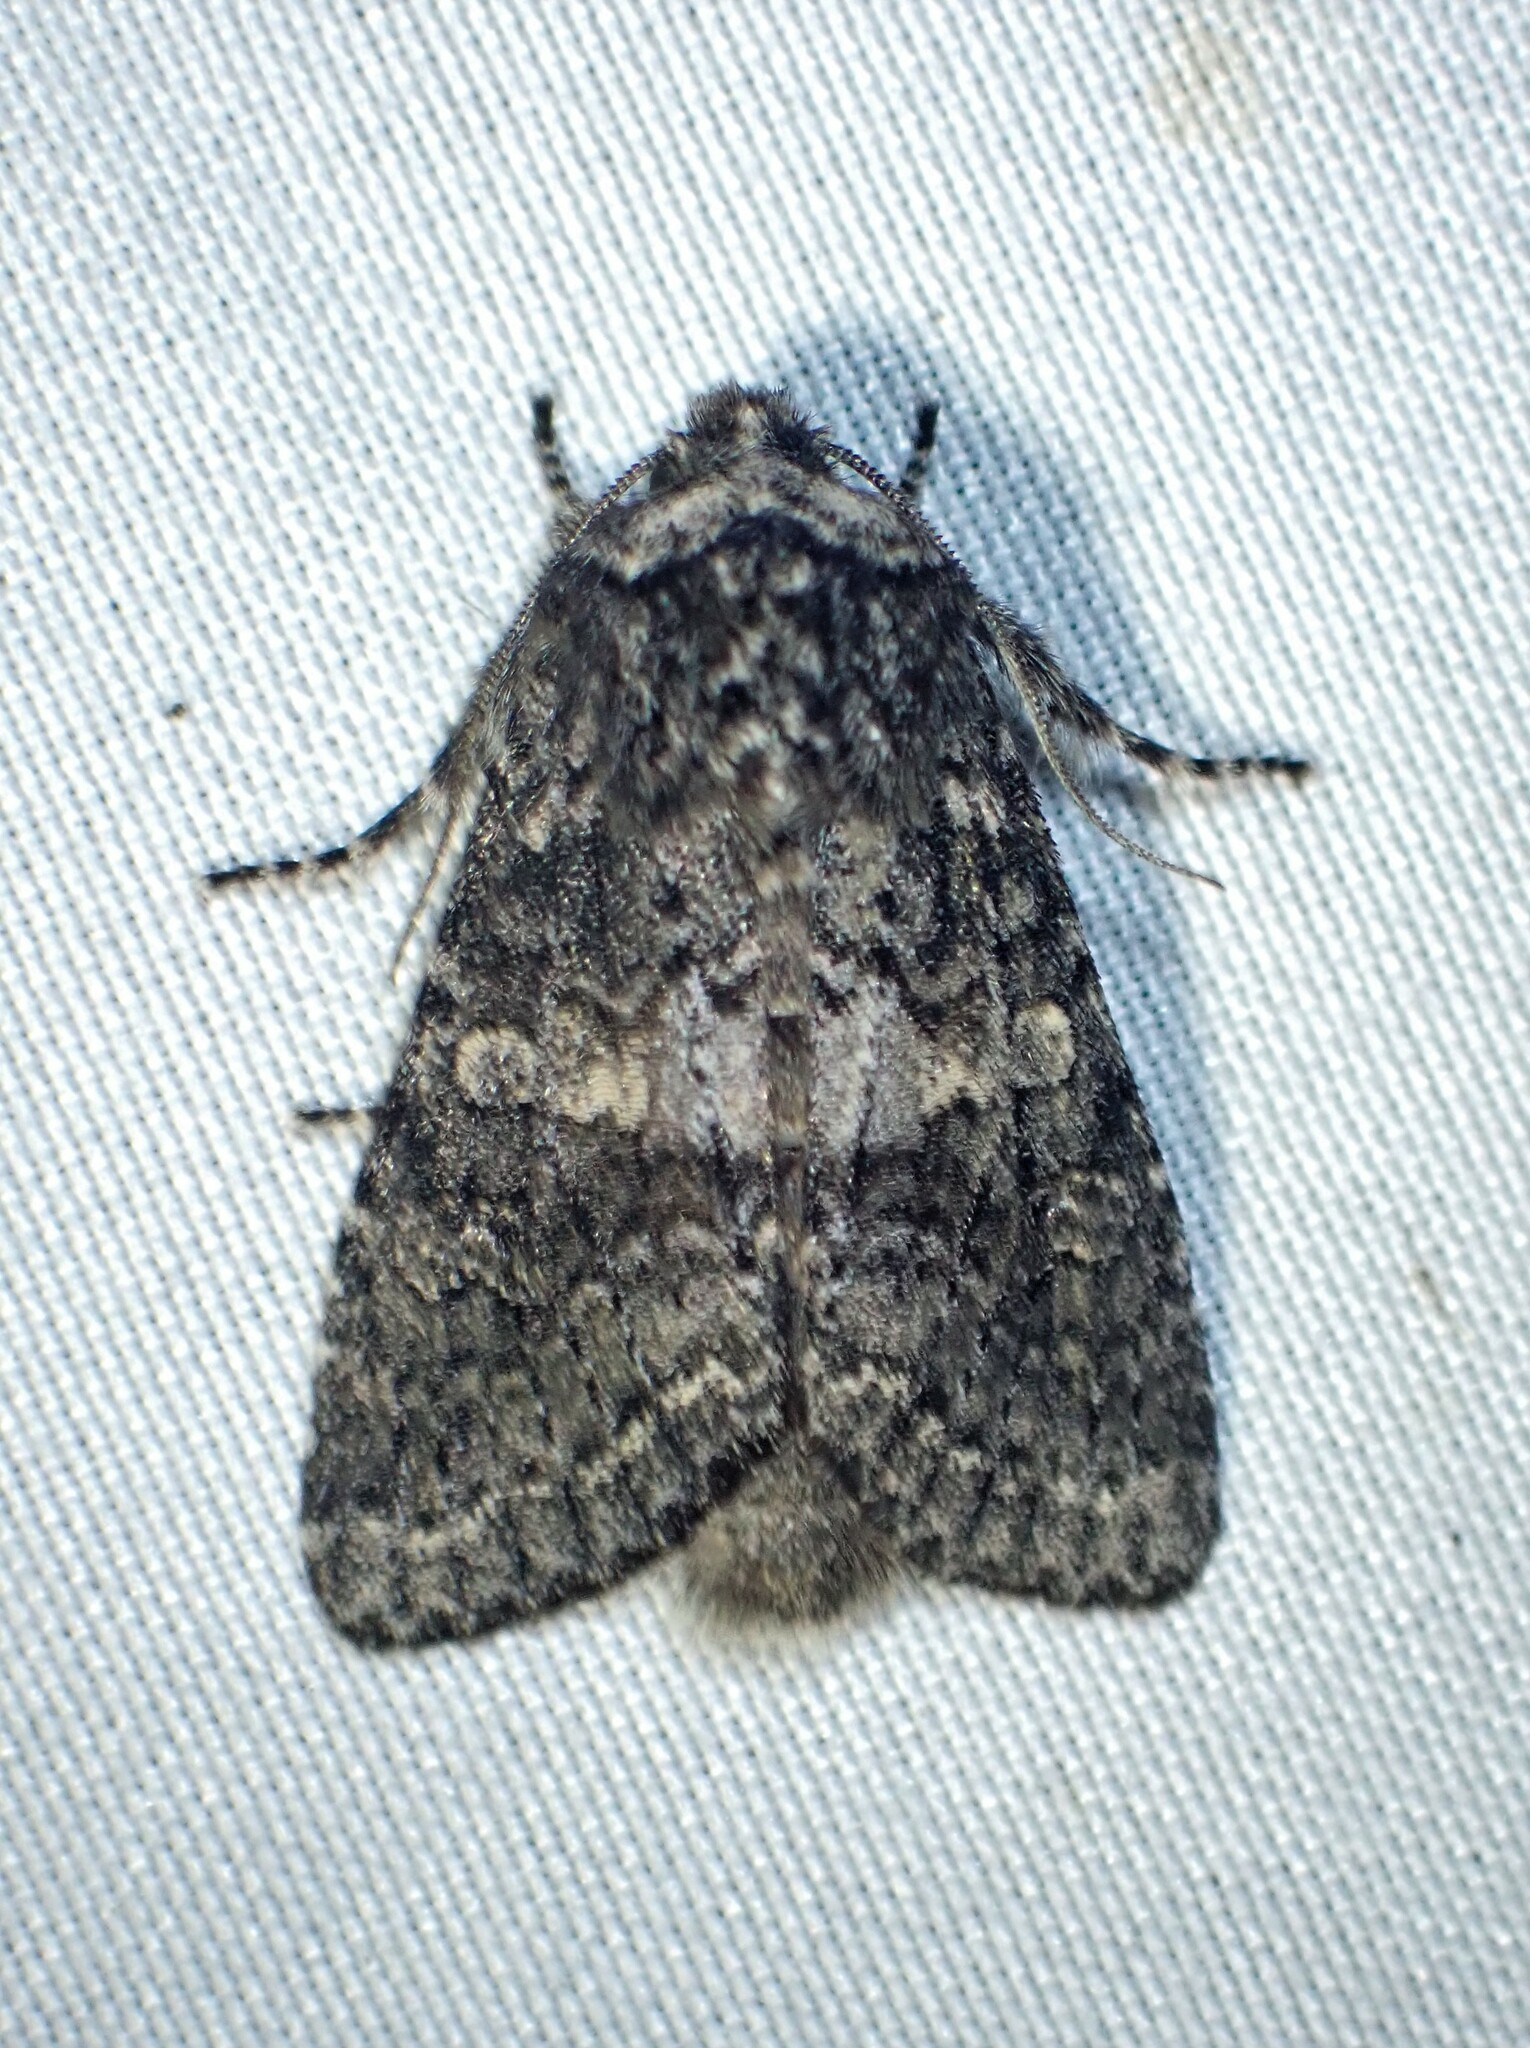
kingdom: Animalia
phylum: Arthropoda
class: Insecta
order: Lepidoptera
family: Noctuidae
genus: Egira
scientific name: Egira dolosa
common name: Lined black aspen cat.
